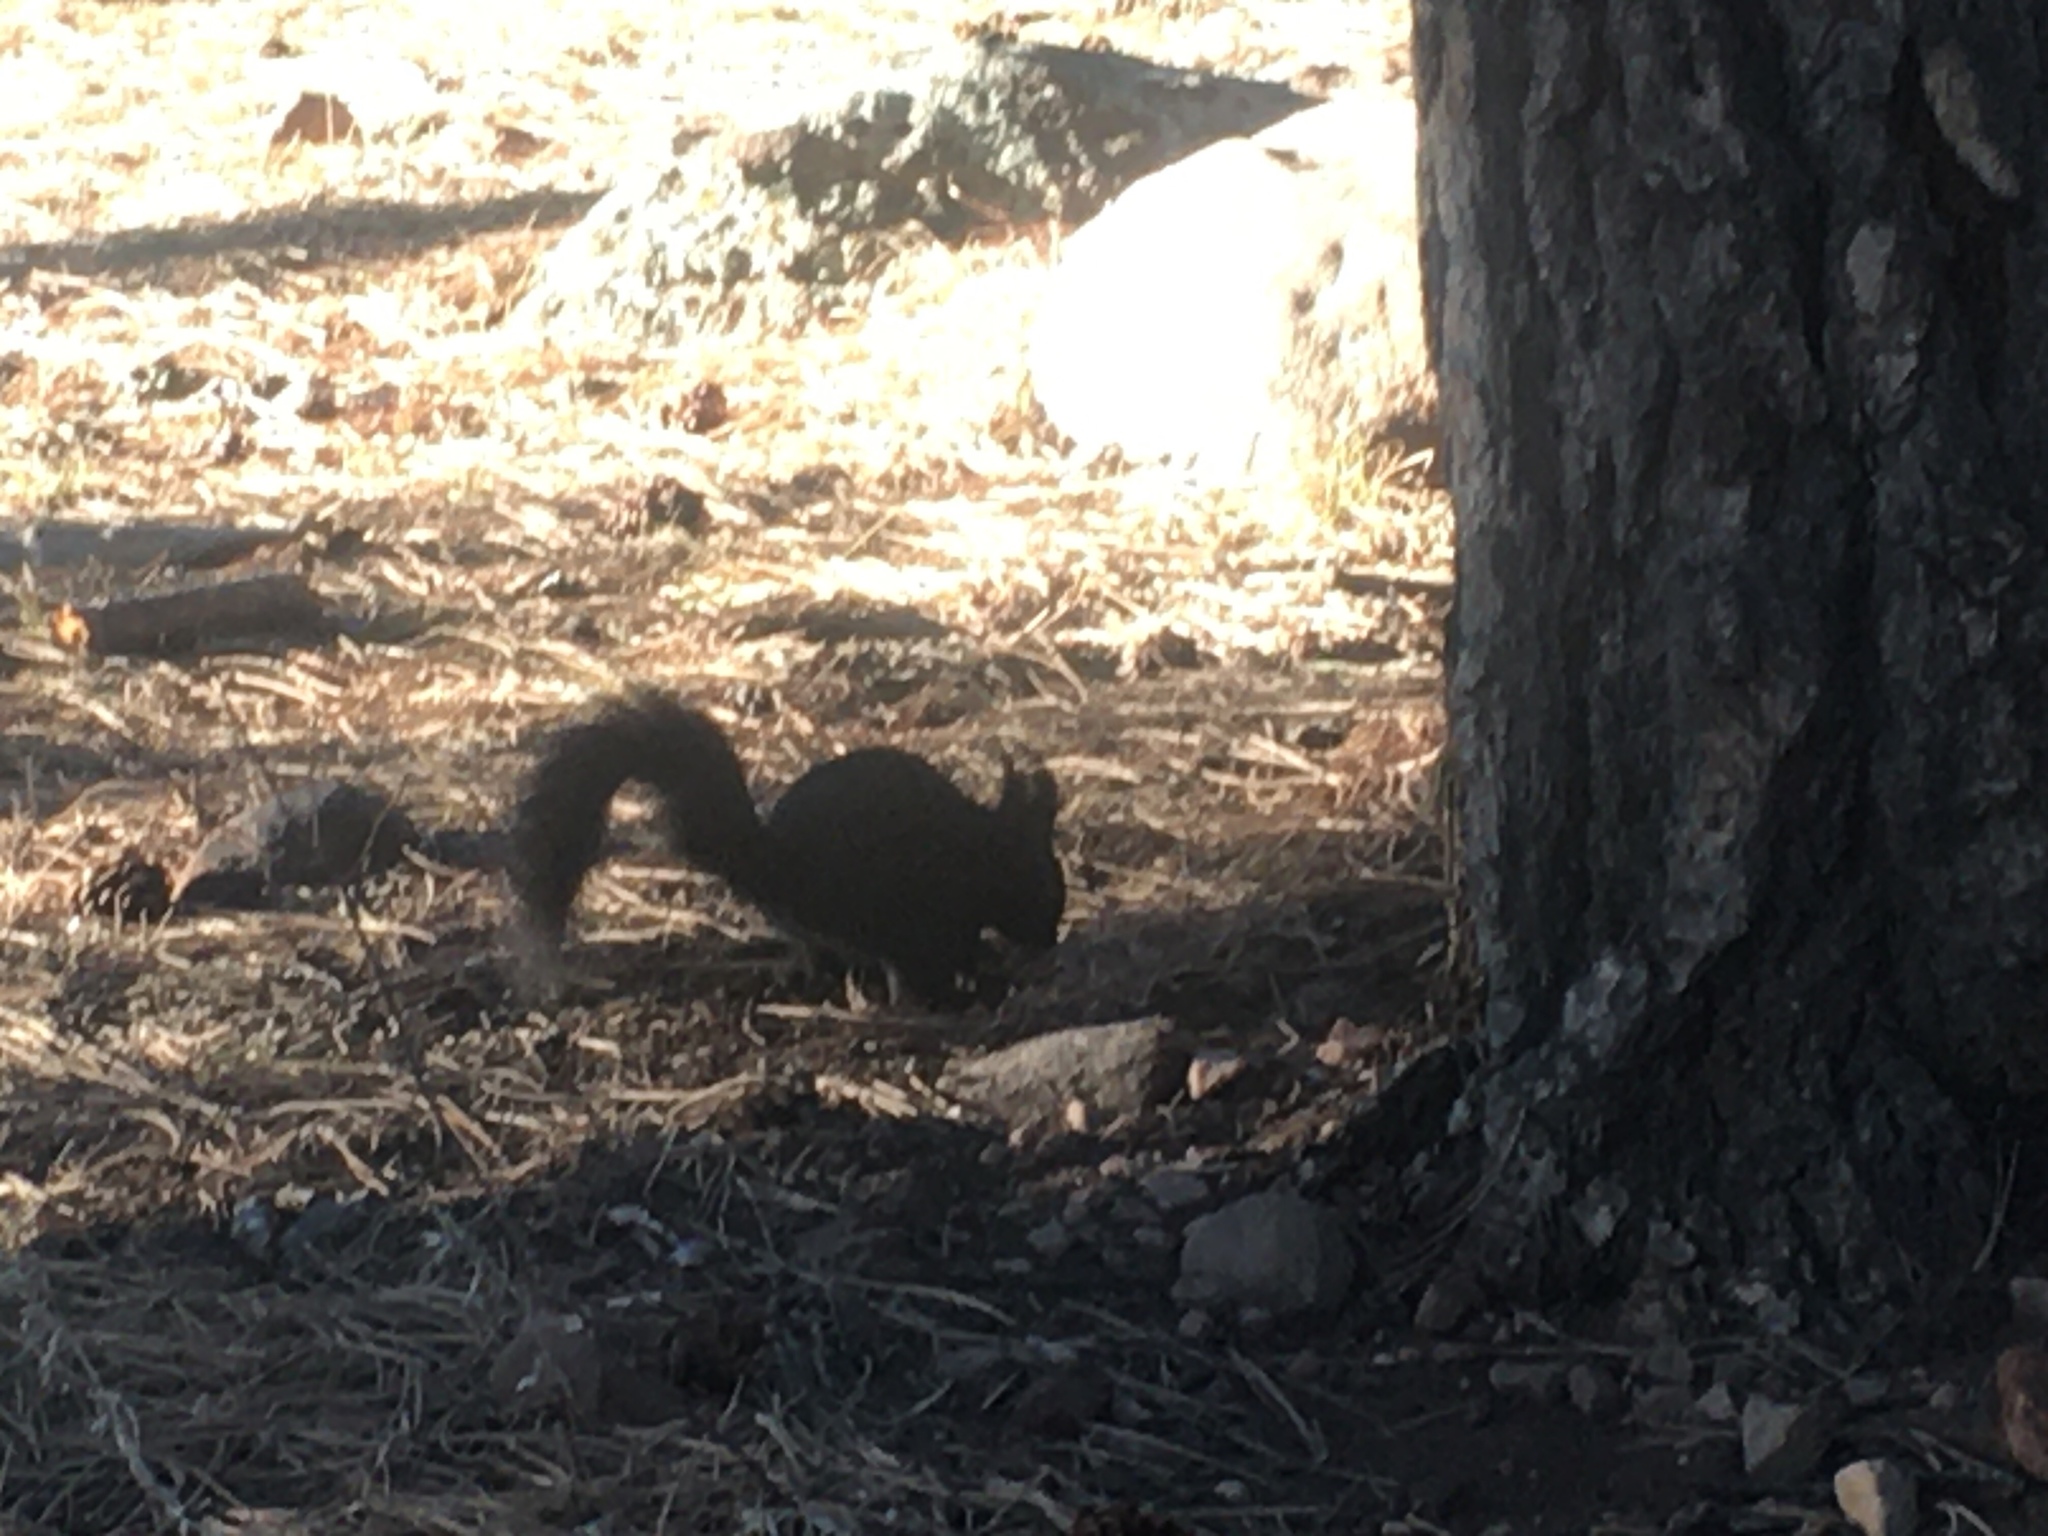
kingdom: Animalia
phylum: Chordata
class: Mammalia
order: Rodentia
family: Sciuridae
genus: Sciurus
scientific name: Sciurus aberti
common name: Abert's squirrel
